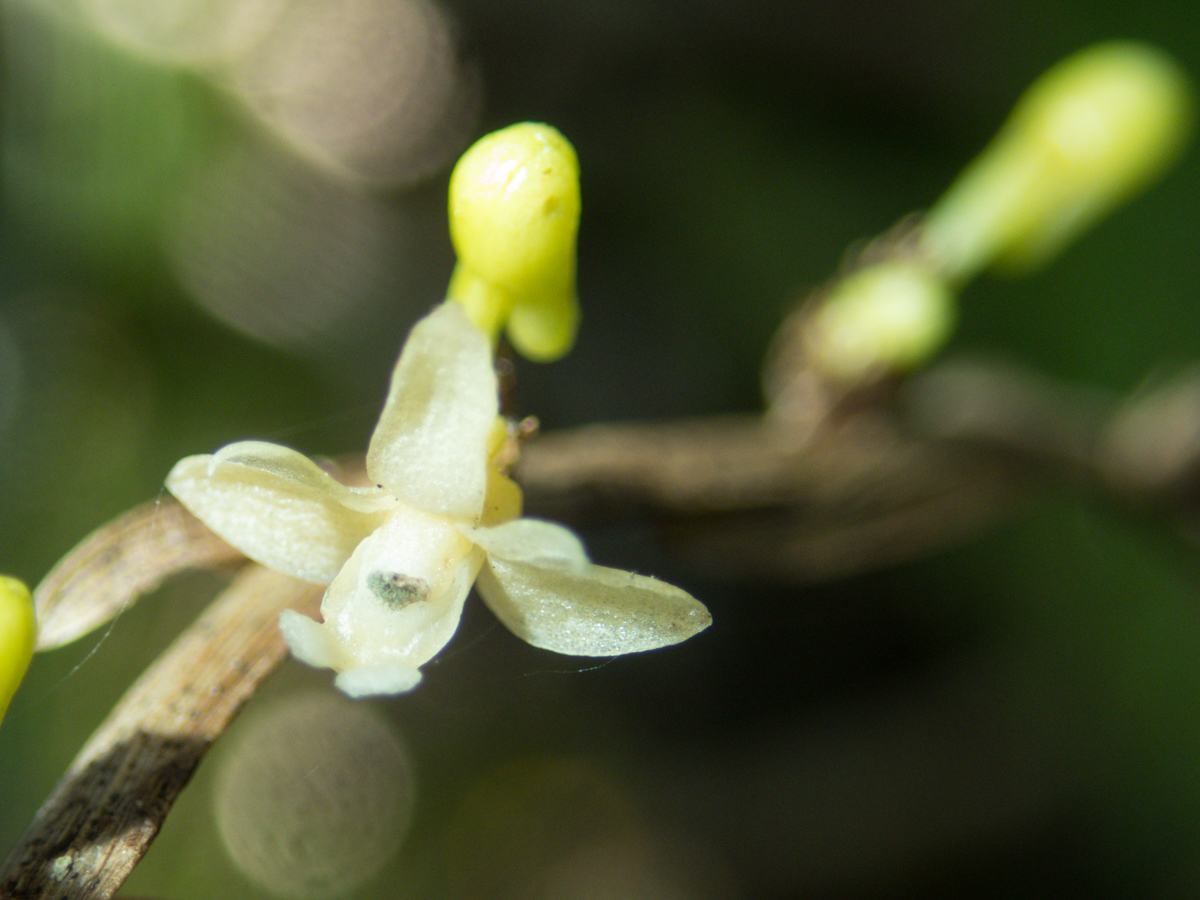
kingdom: Plantae
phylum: Tracheophyta
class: Liliopsida
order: Asparagales
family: Orchidaceae
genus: Dendrobium
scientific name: Dendrobium aloifolium
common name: Aloe-like dendrobium
